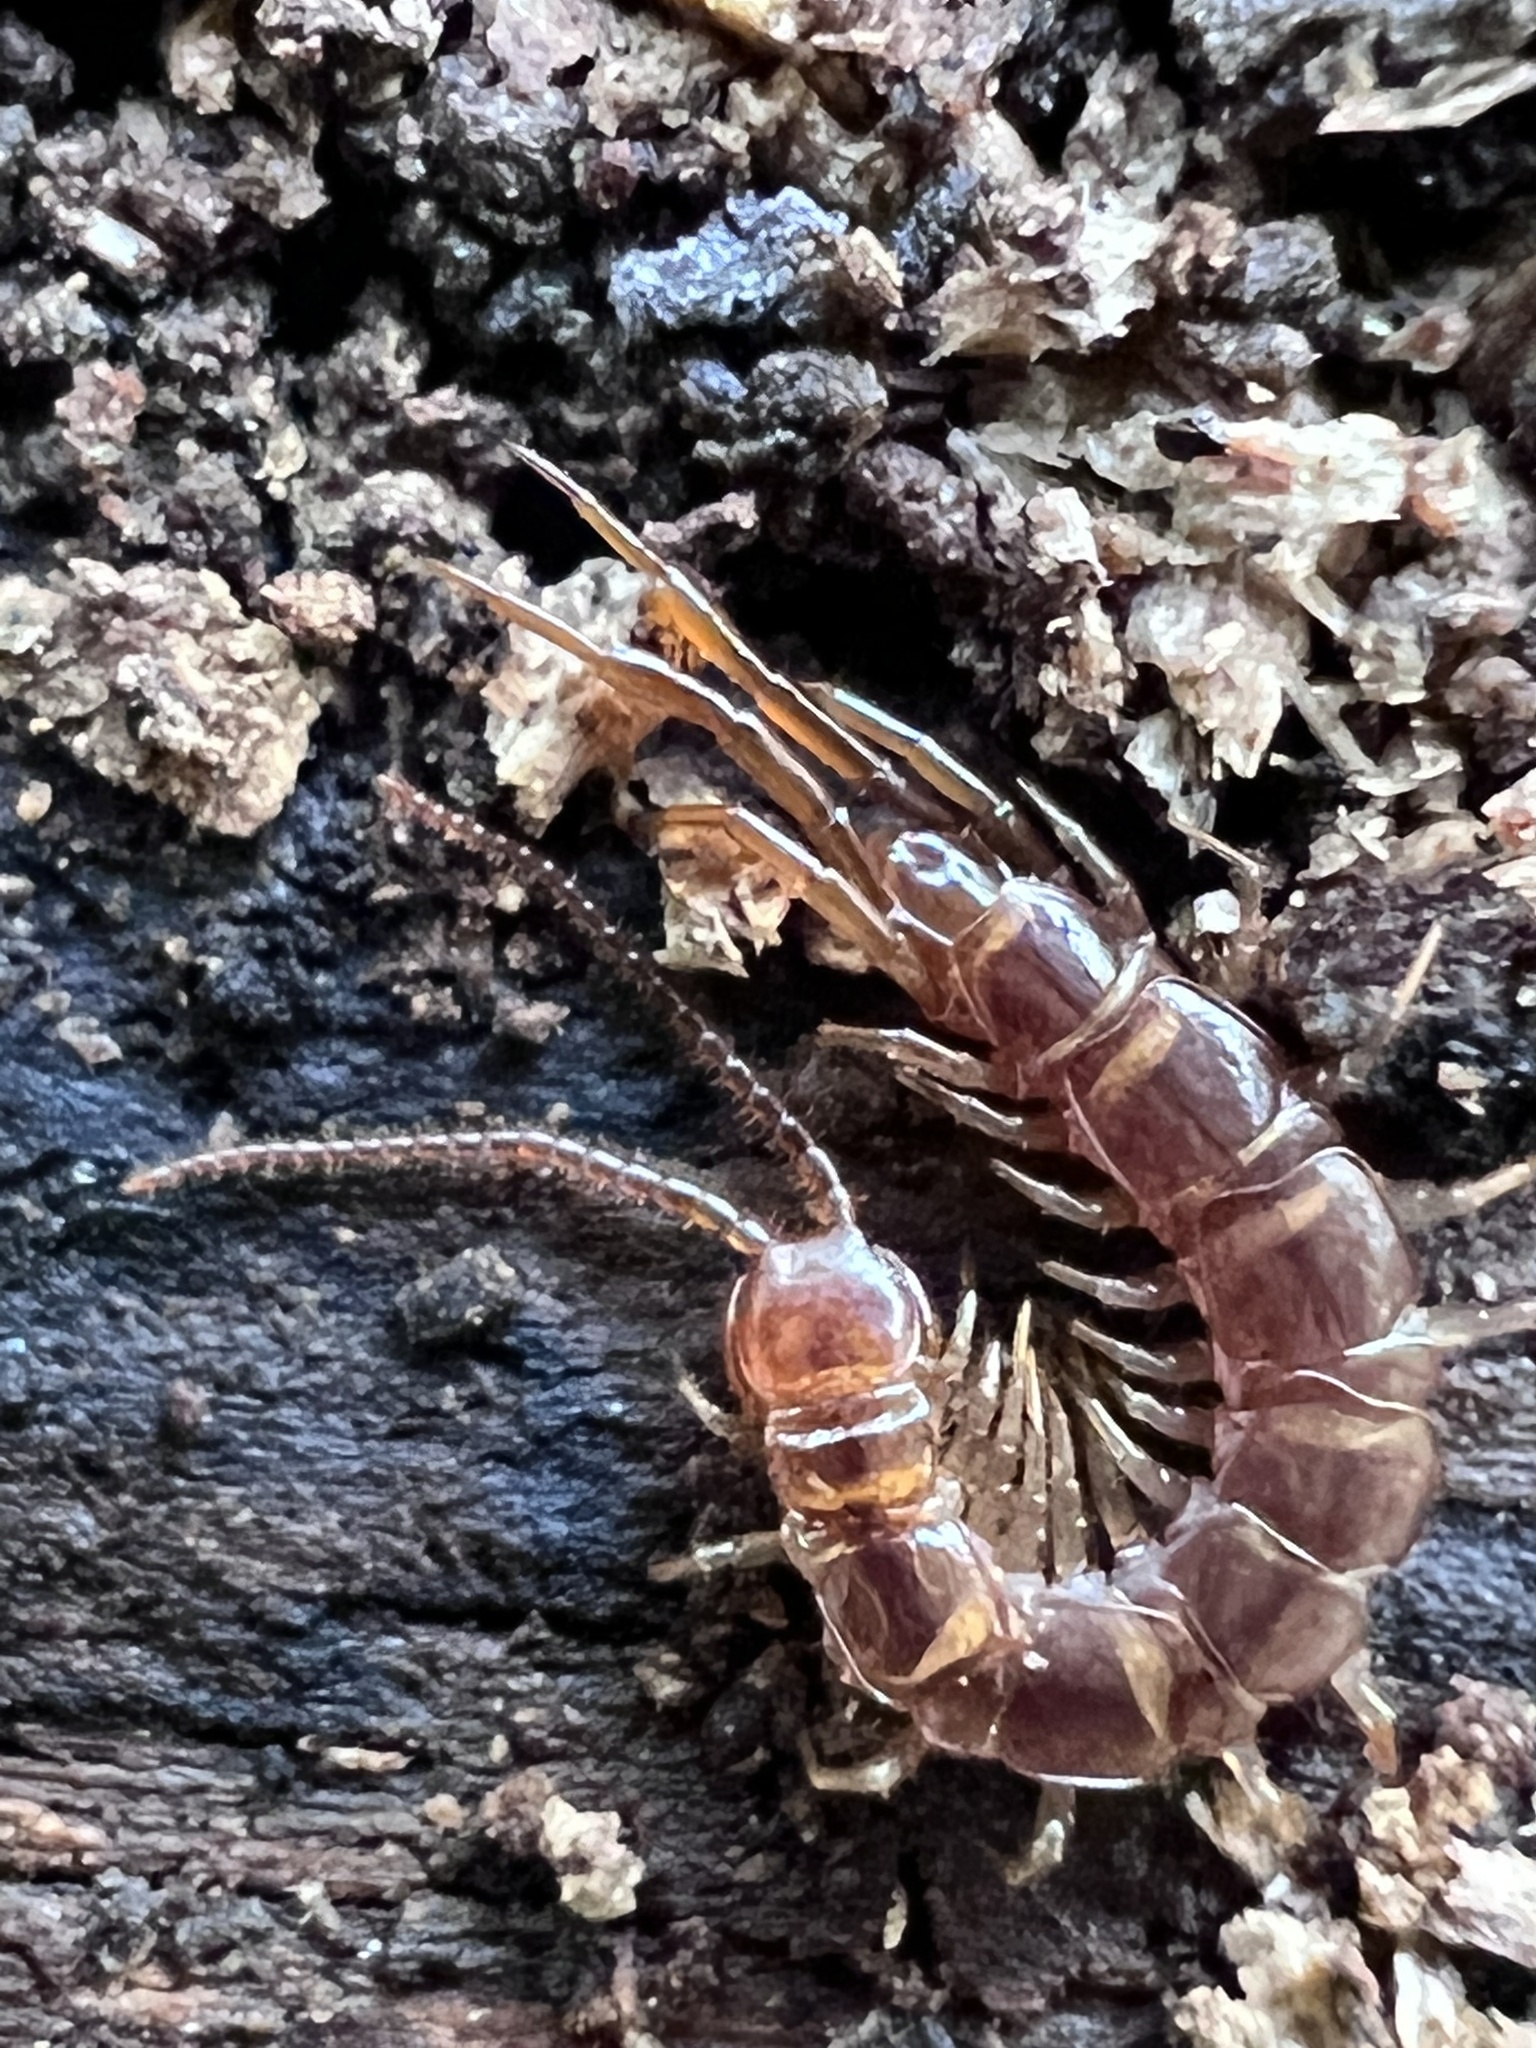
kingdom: Animalia
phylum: Arthropoda
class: Chilopoda
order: Lithobiomorpha
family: Lithobiidae
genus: Lithobius
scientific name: Lithobius forficatus
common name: Centipede
